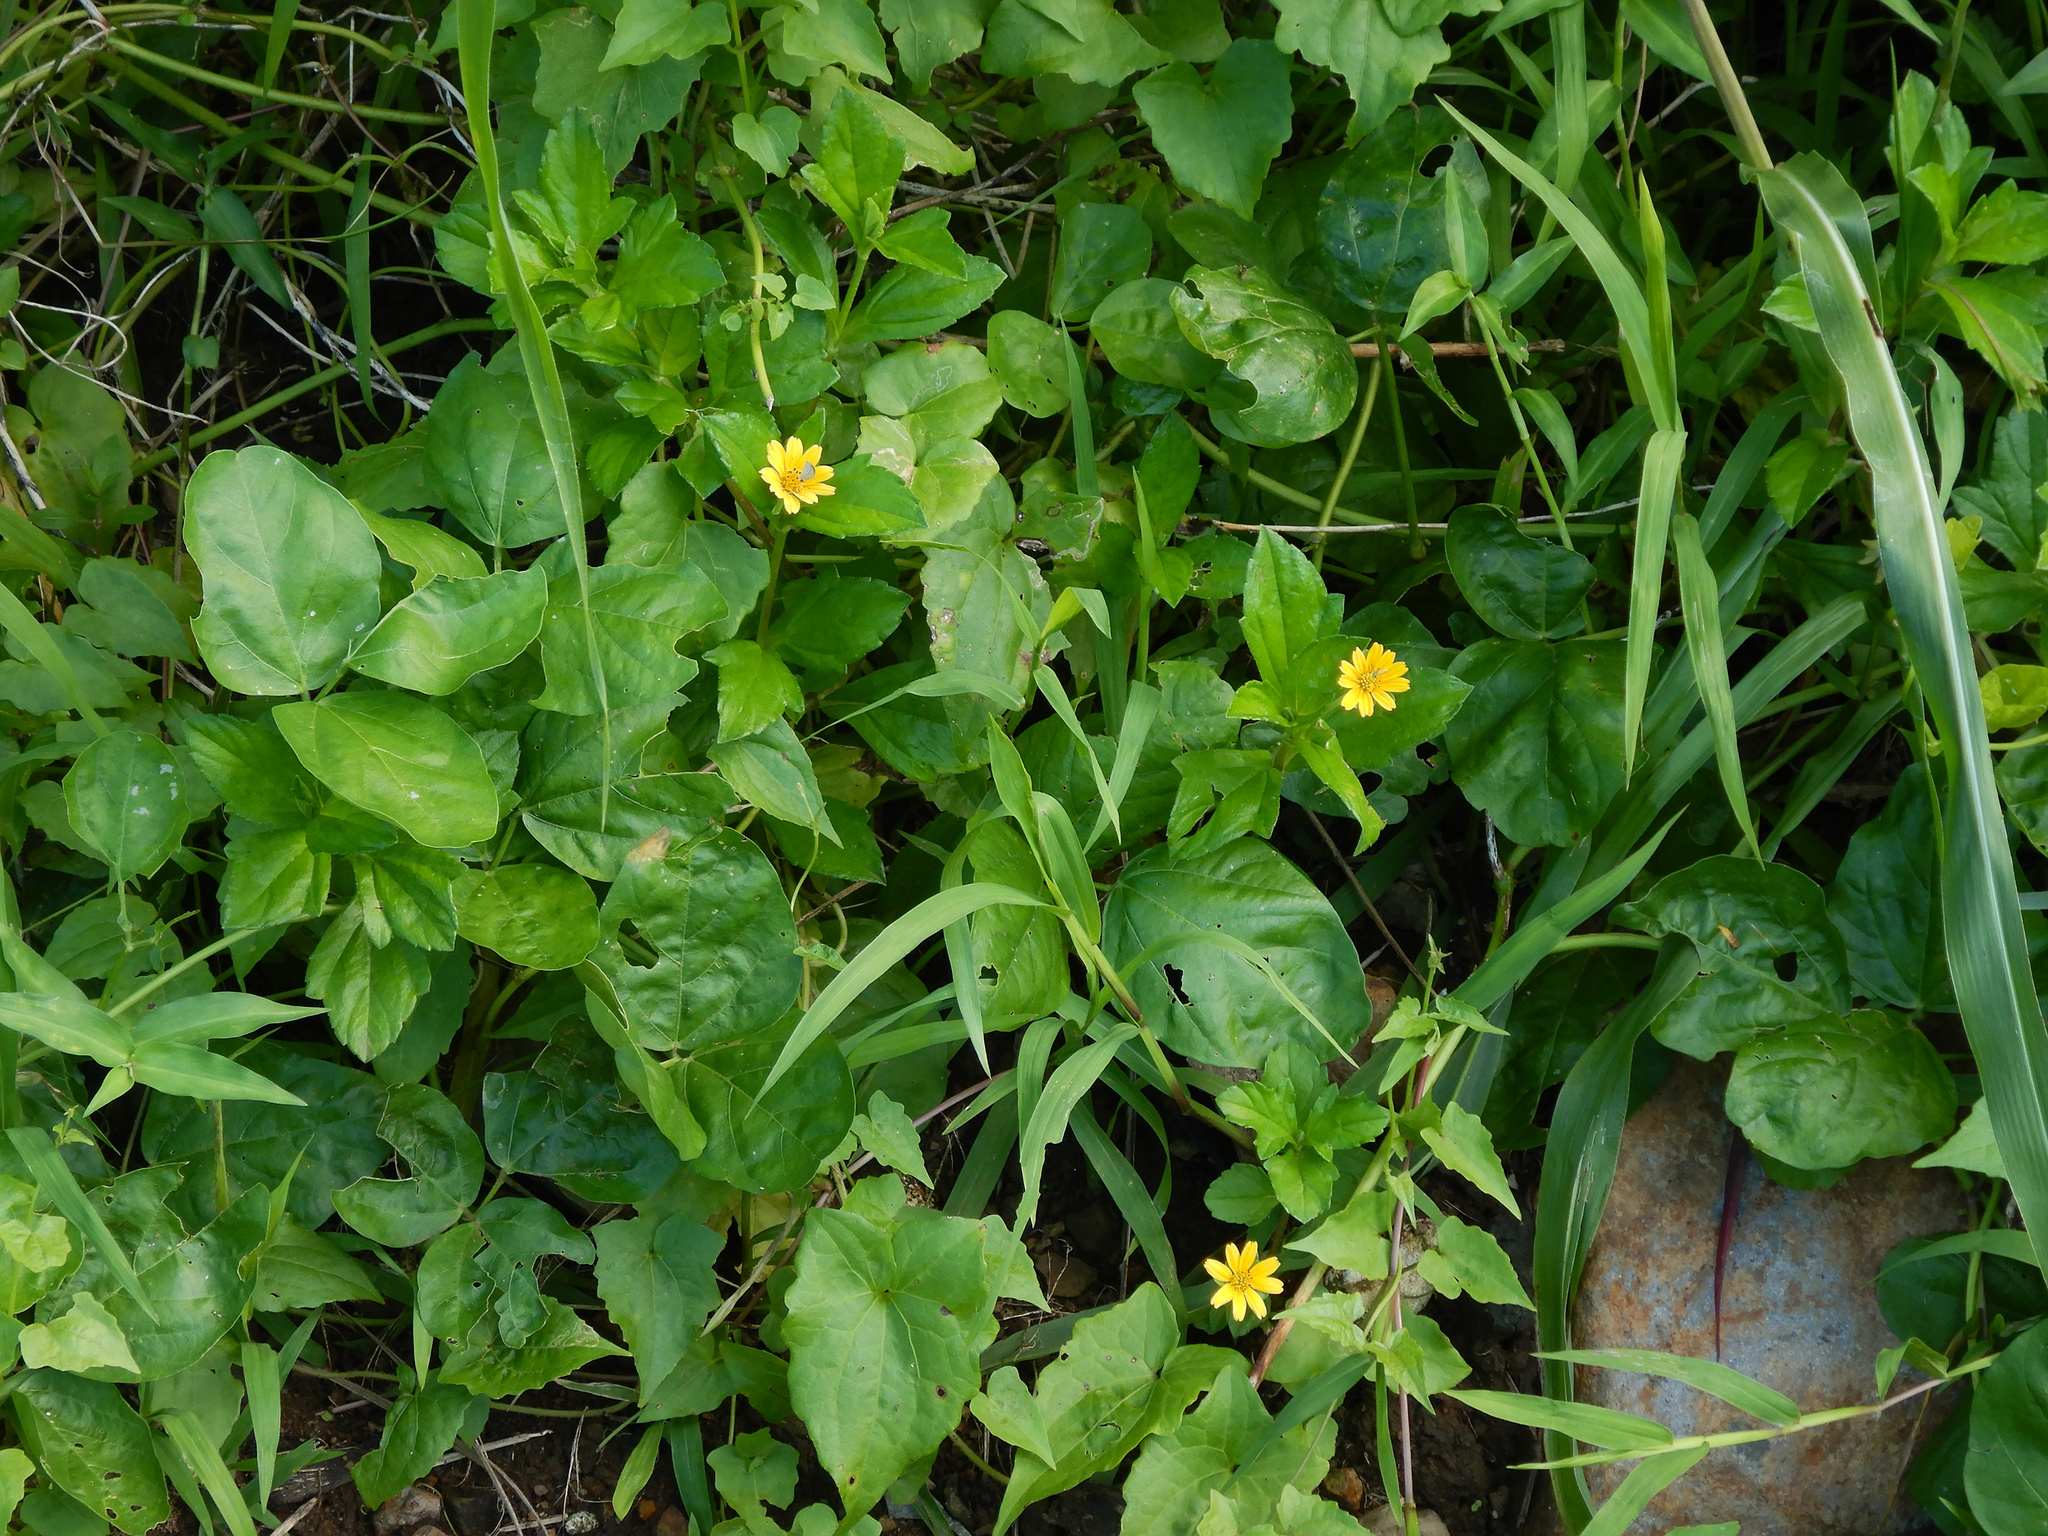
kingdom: Plantae
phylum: Tracheophyta
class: Magnoliopsida
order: Asterales
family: Asteraceae
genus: Sphagneticola
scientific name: Sphagneticola trilobata
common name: Bay biscayne creeping-oxeye
